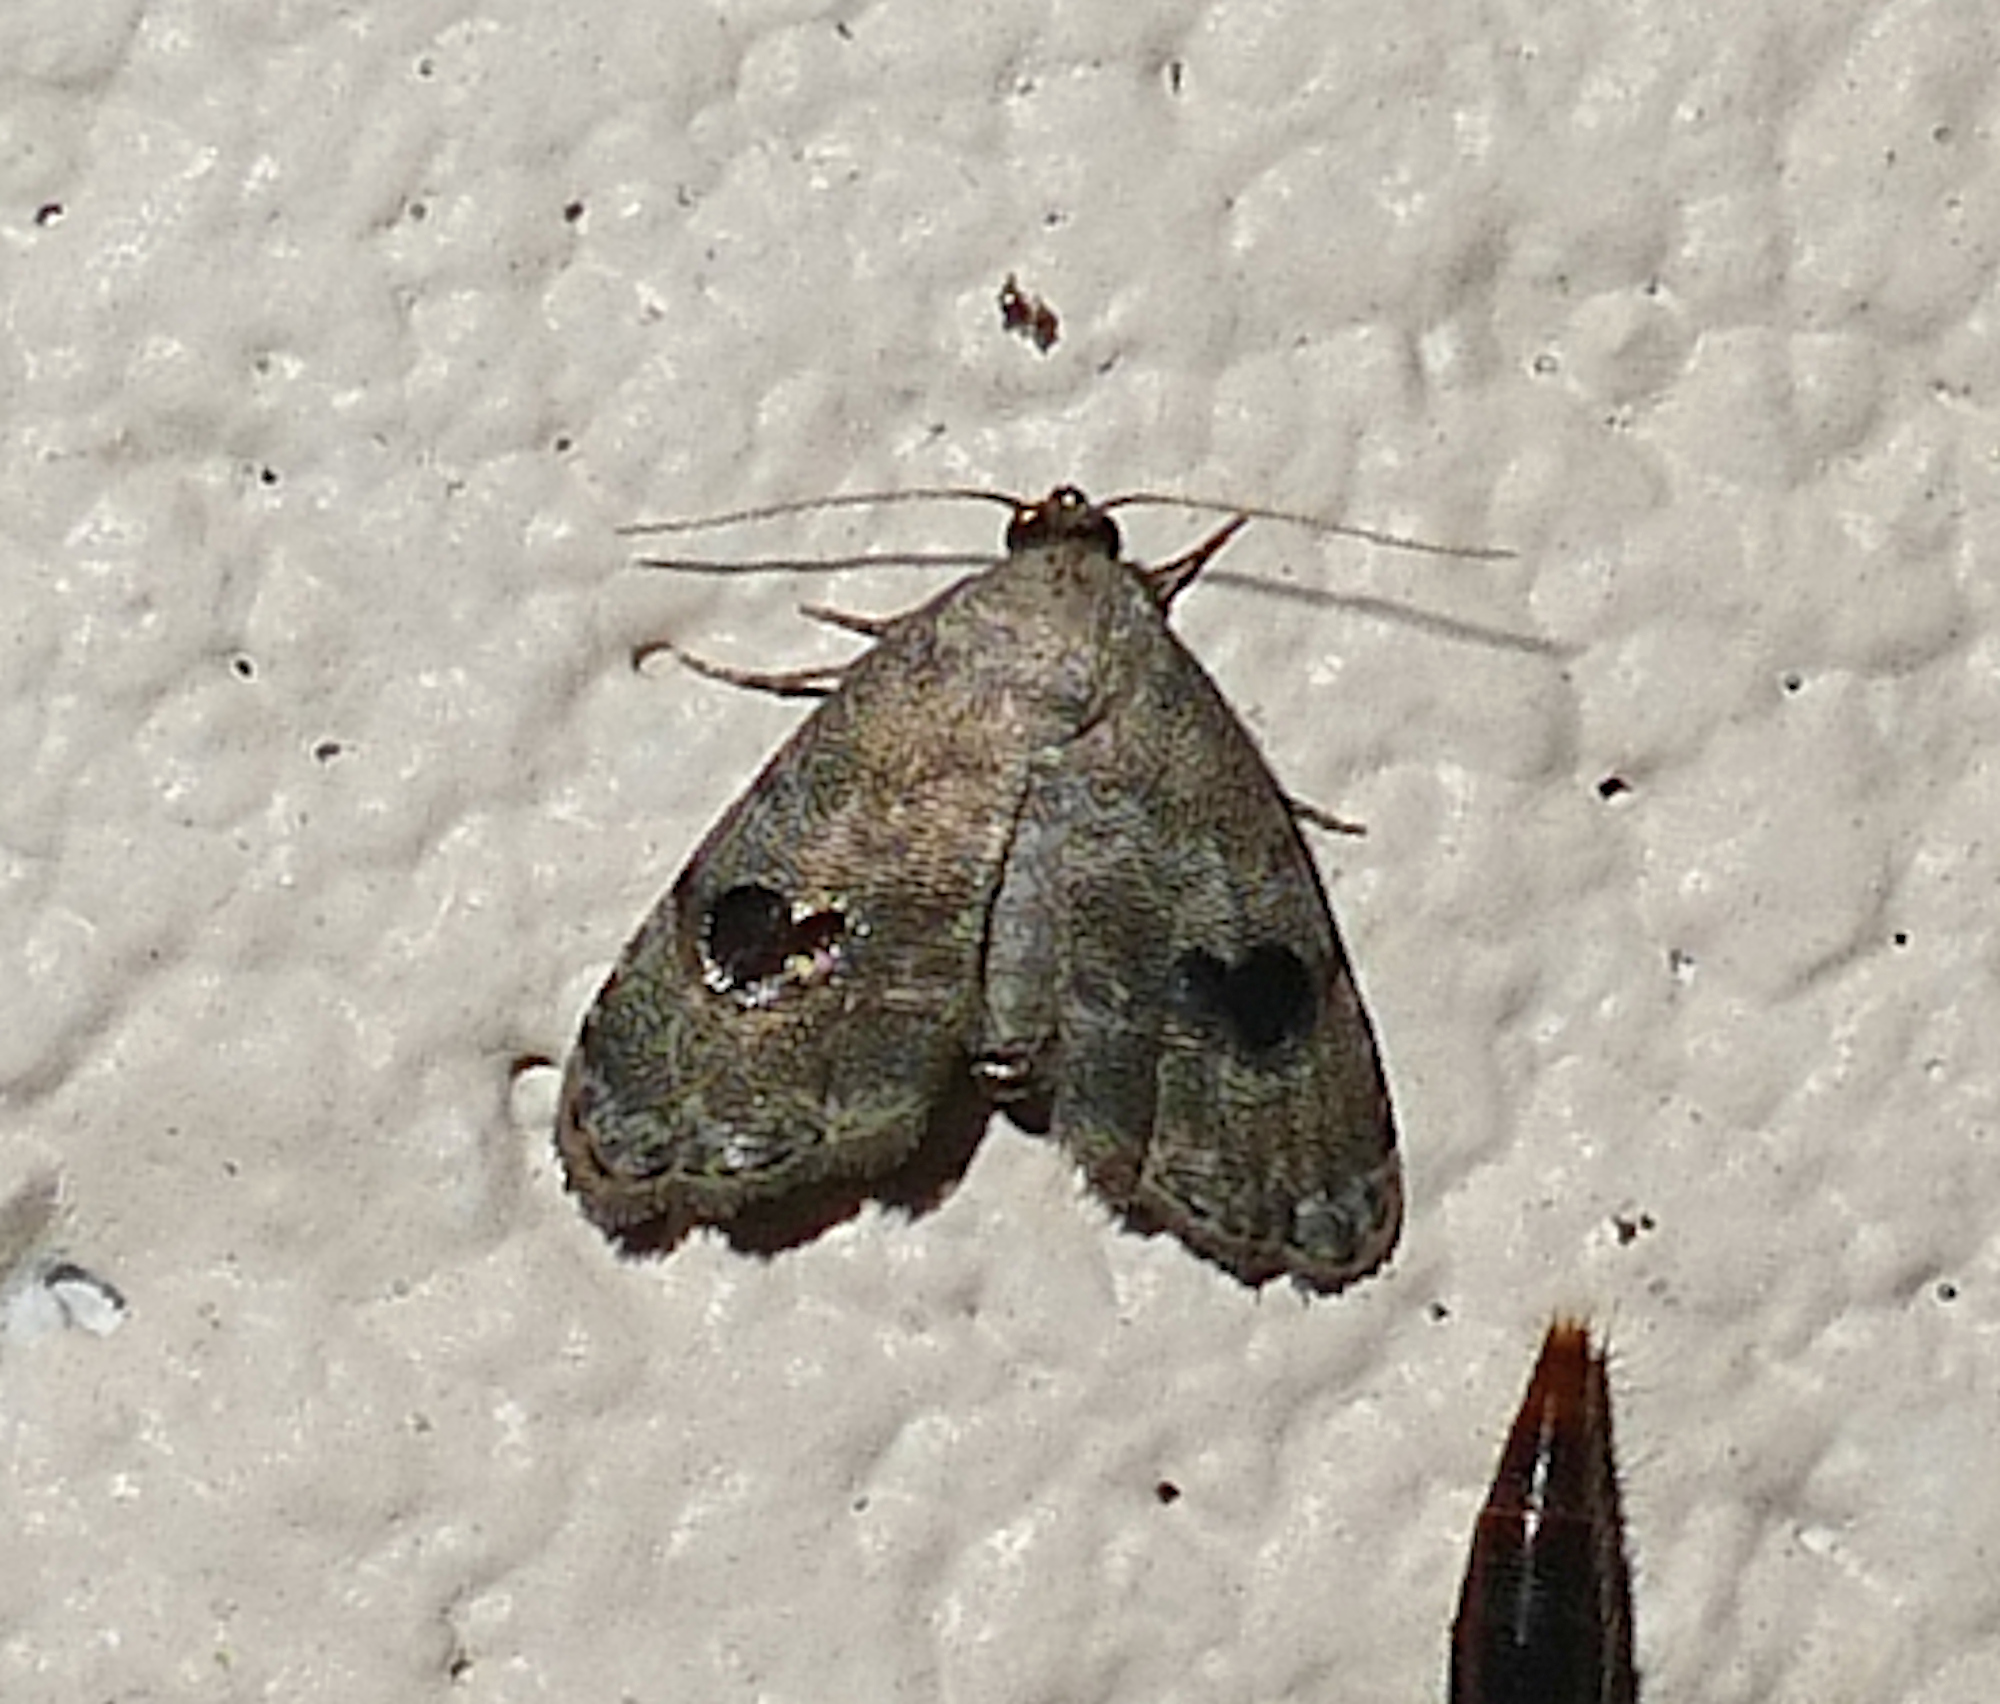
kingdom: Animalia
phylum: Arthropoda
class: Insecta
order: Lepidoptera
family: Noctuidae
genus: Abablemma
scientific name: Abablemma duomaculata
